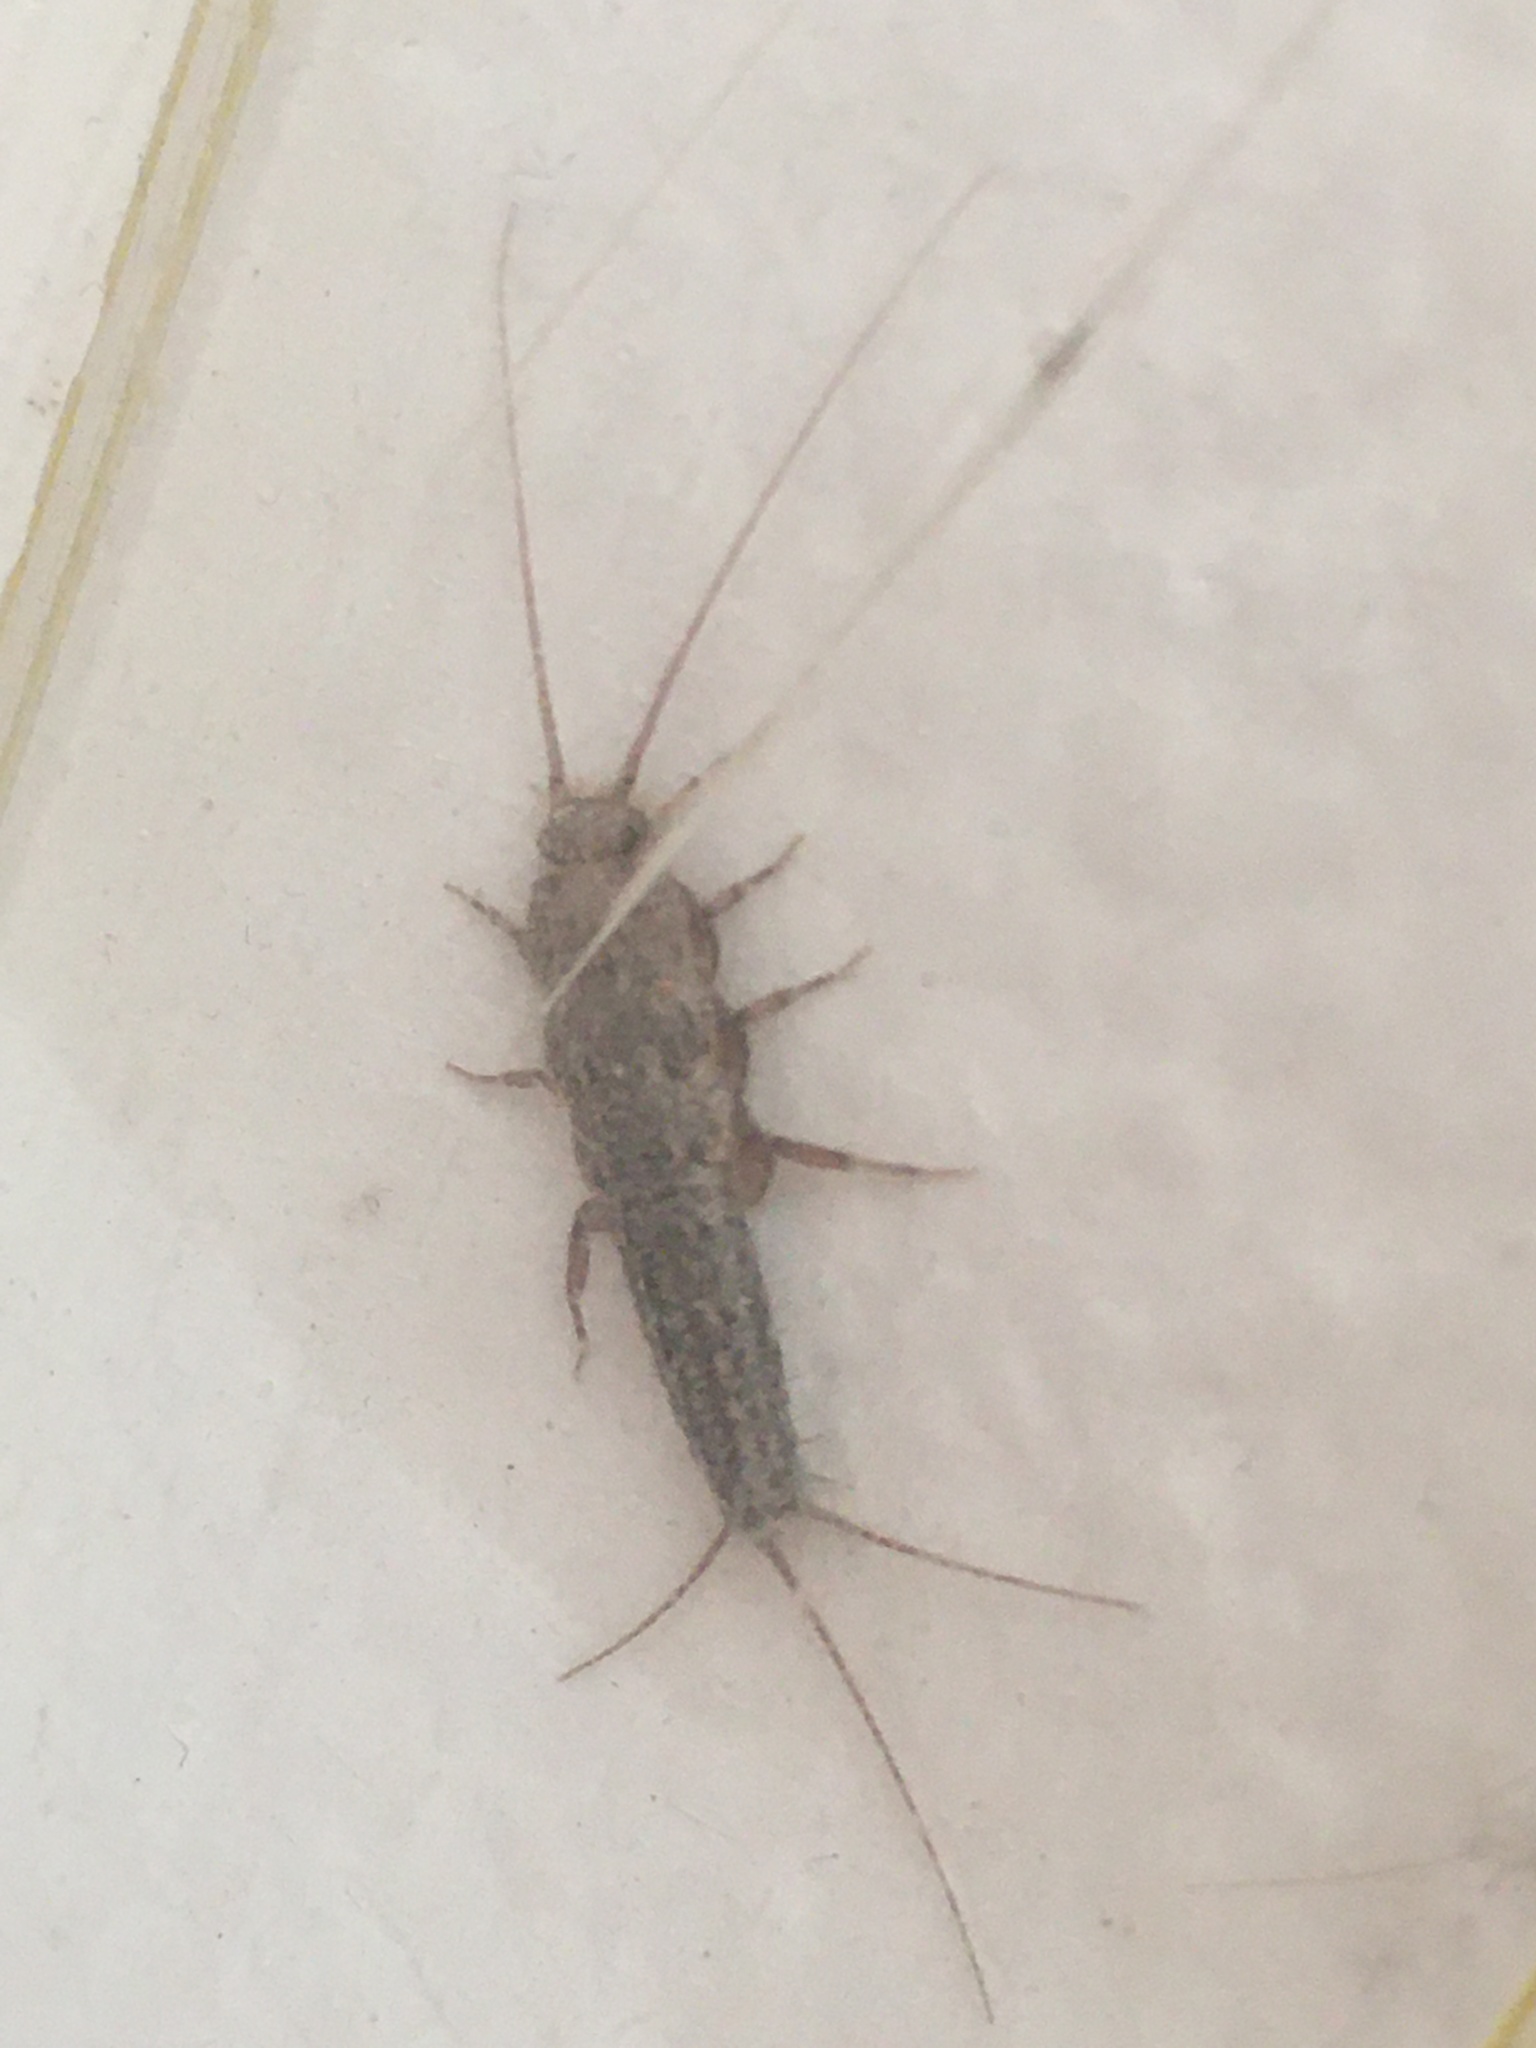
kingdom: Animalia
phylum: Arthropoda
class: Insecta
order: Zygentoma
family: Lepismatidae
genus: Ctenolepisma
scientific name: Ctenolepisma lineata
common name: Four-lined silverfish
